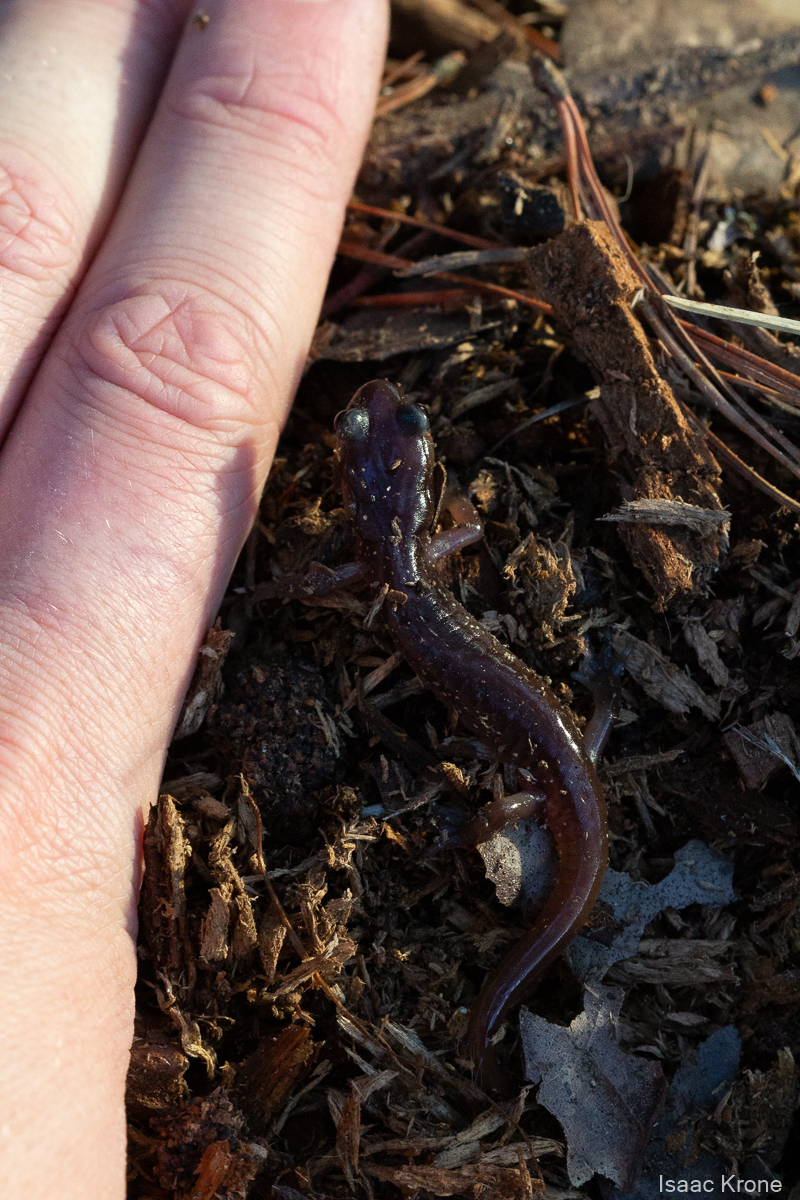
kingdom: Animalia
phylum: Chordata
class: Amphibia
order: Caudata
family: Plethodontidae
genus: Aneides
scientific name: Aneides lugubris
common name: Arboreal salamander
